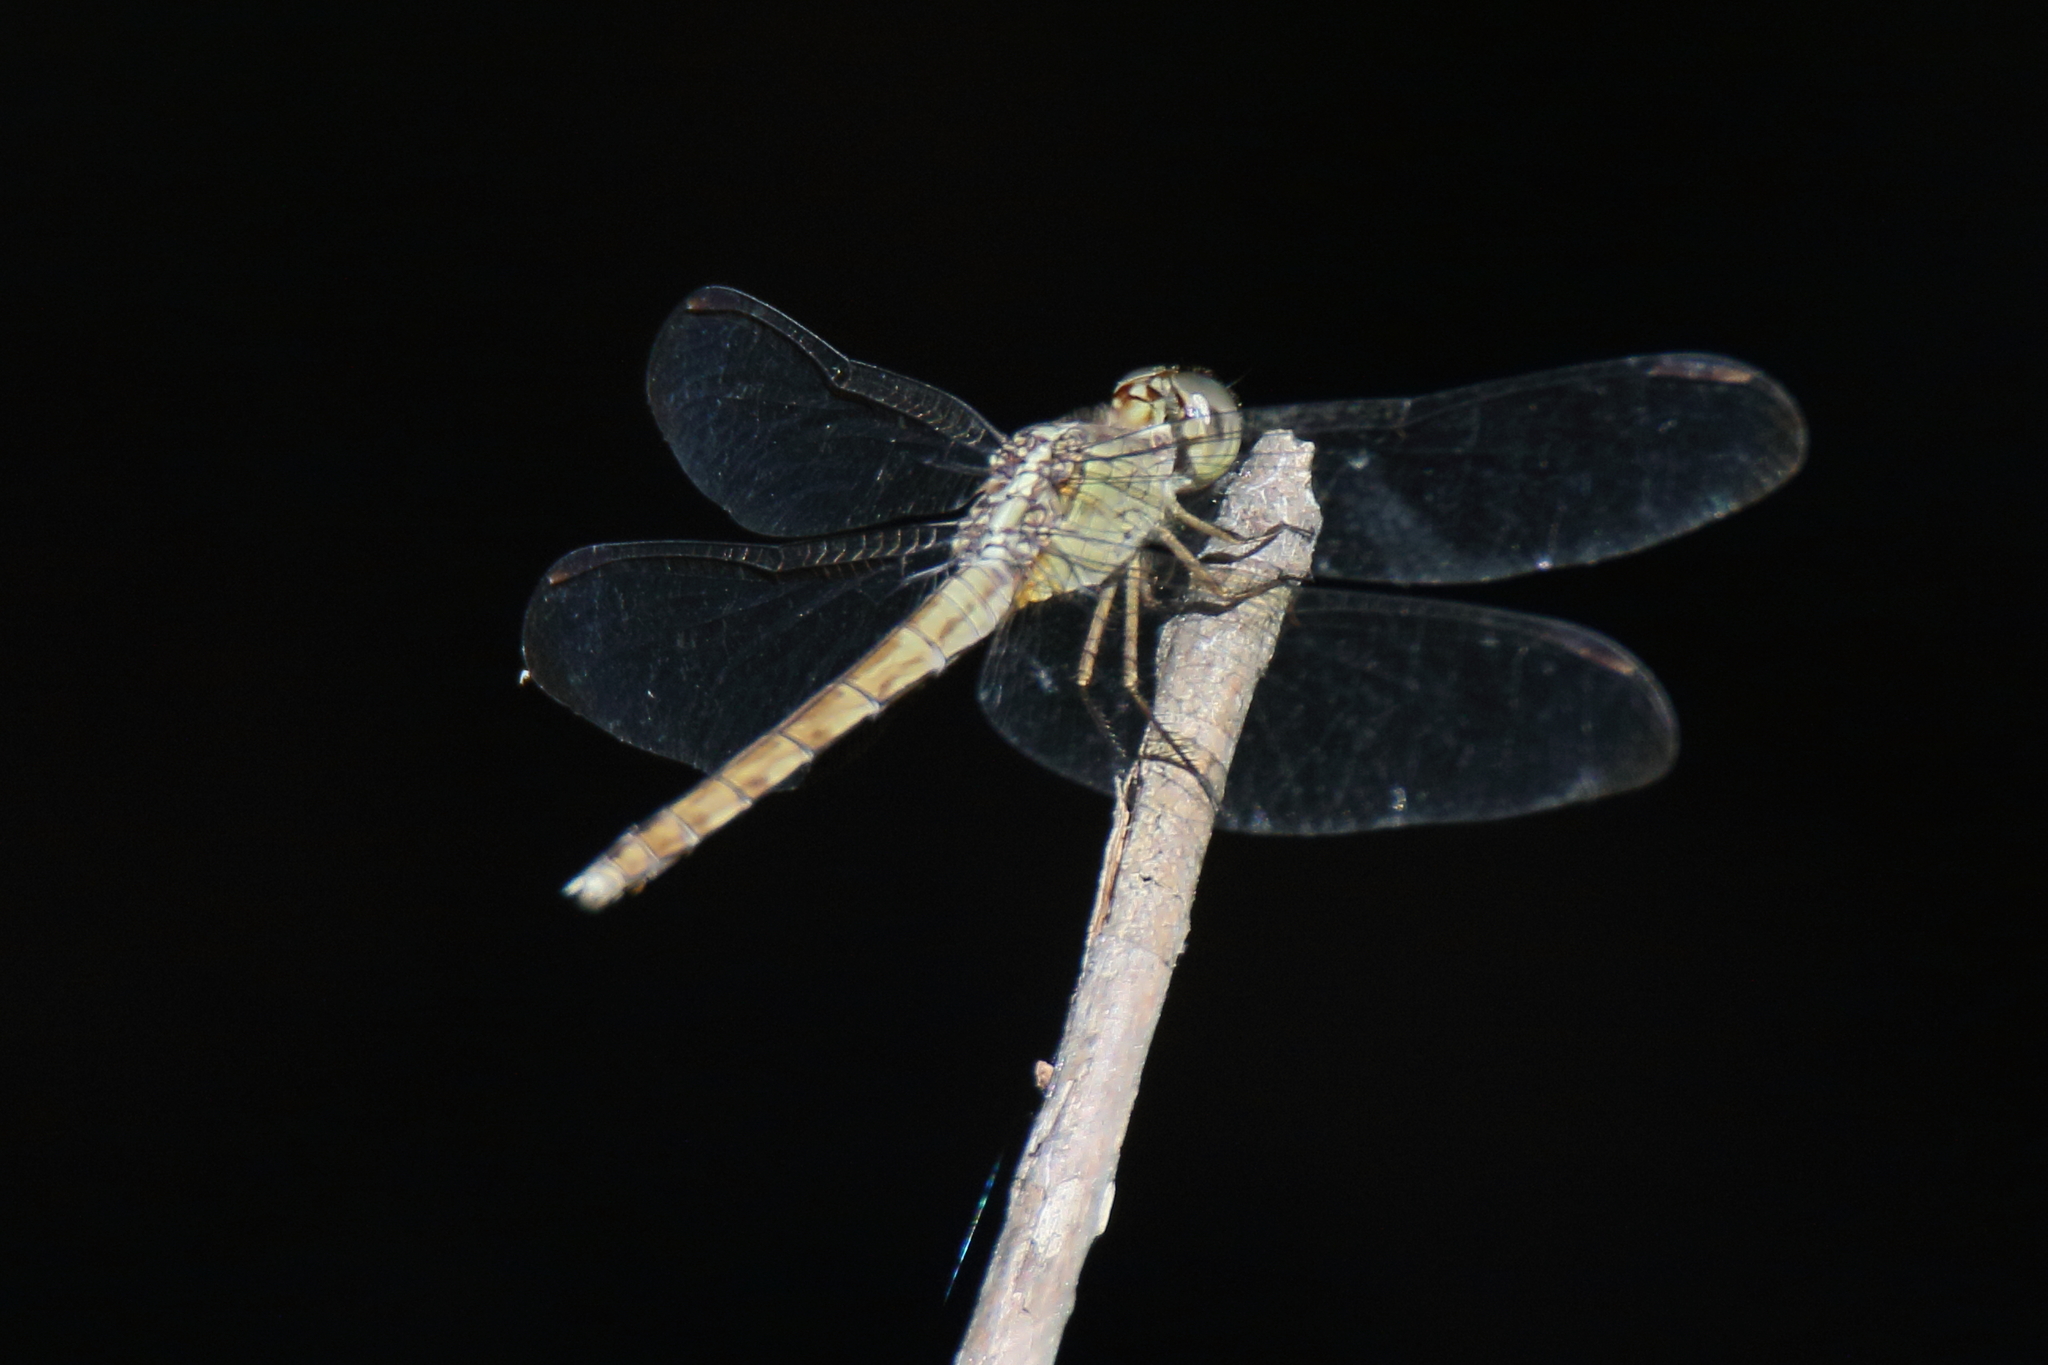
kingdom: Animalia
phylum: Arthropoda
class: Insecta
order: Odonata
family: Libellulidae
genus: Erythrodiplax
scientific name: Erythrodiplax umbrata
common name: Band-winged dragonlet
